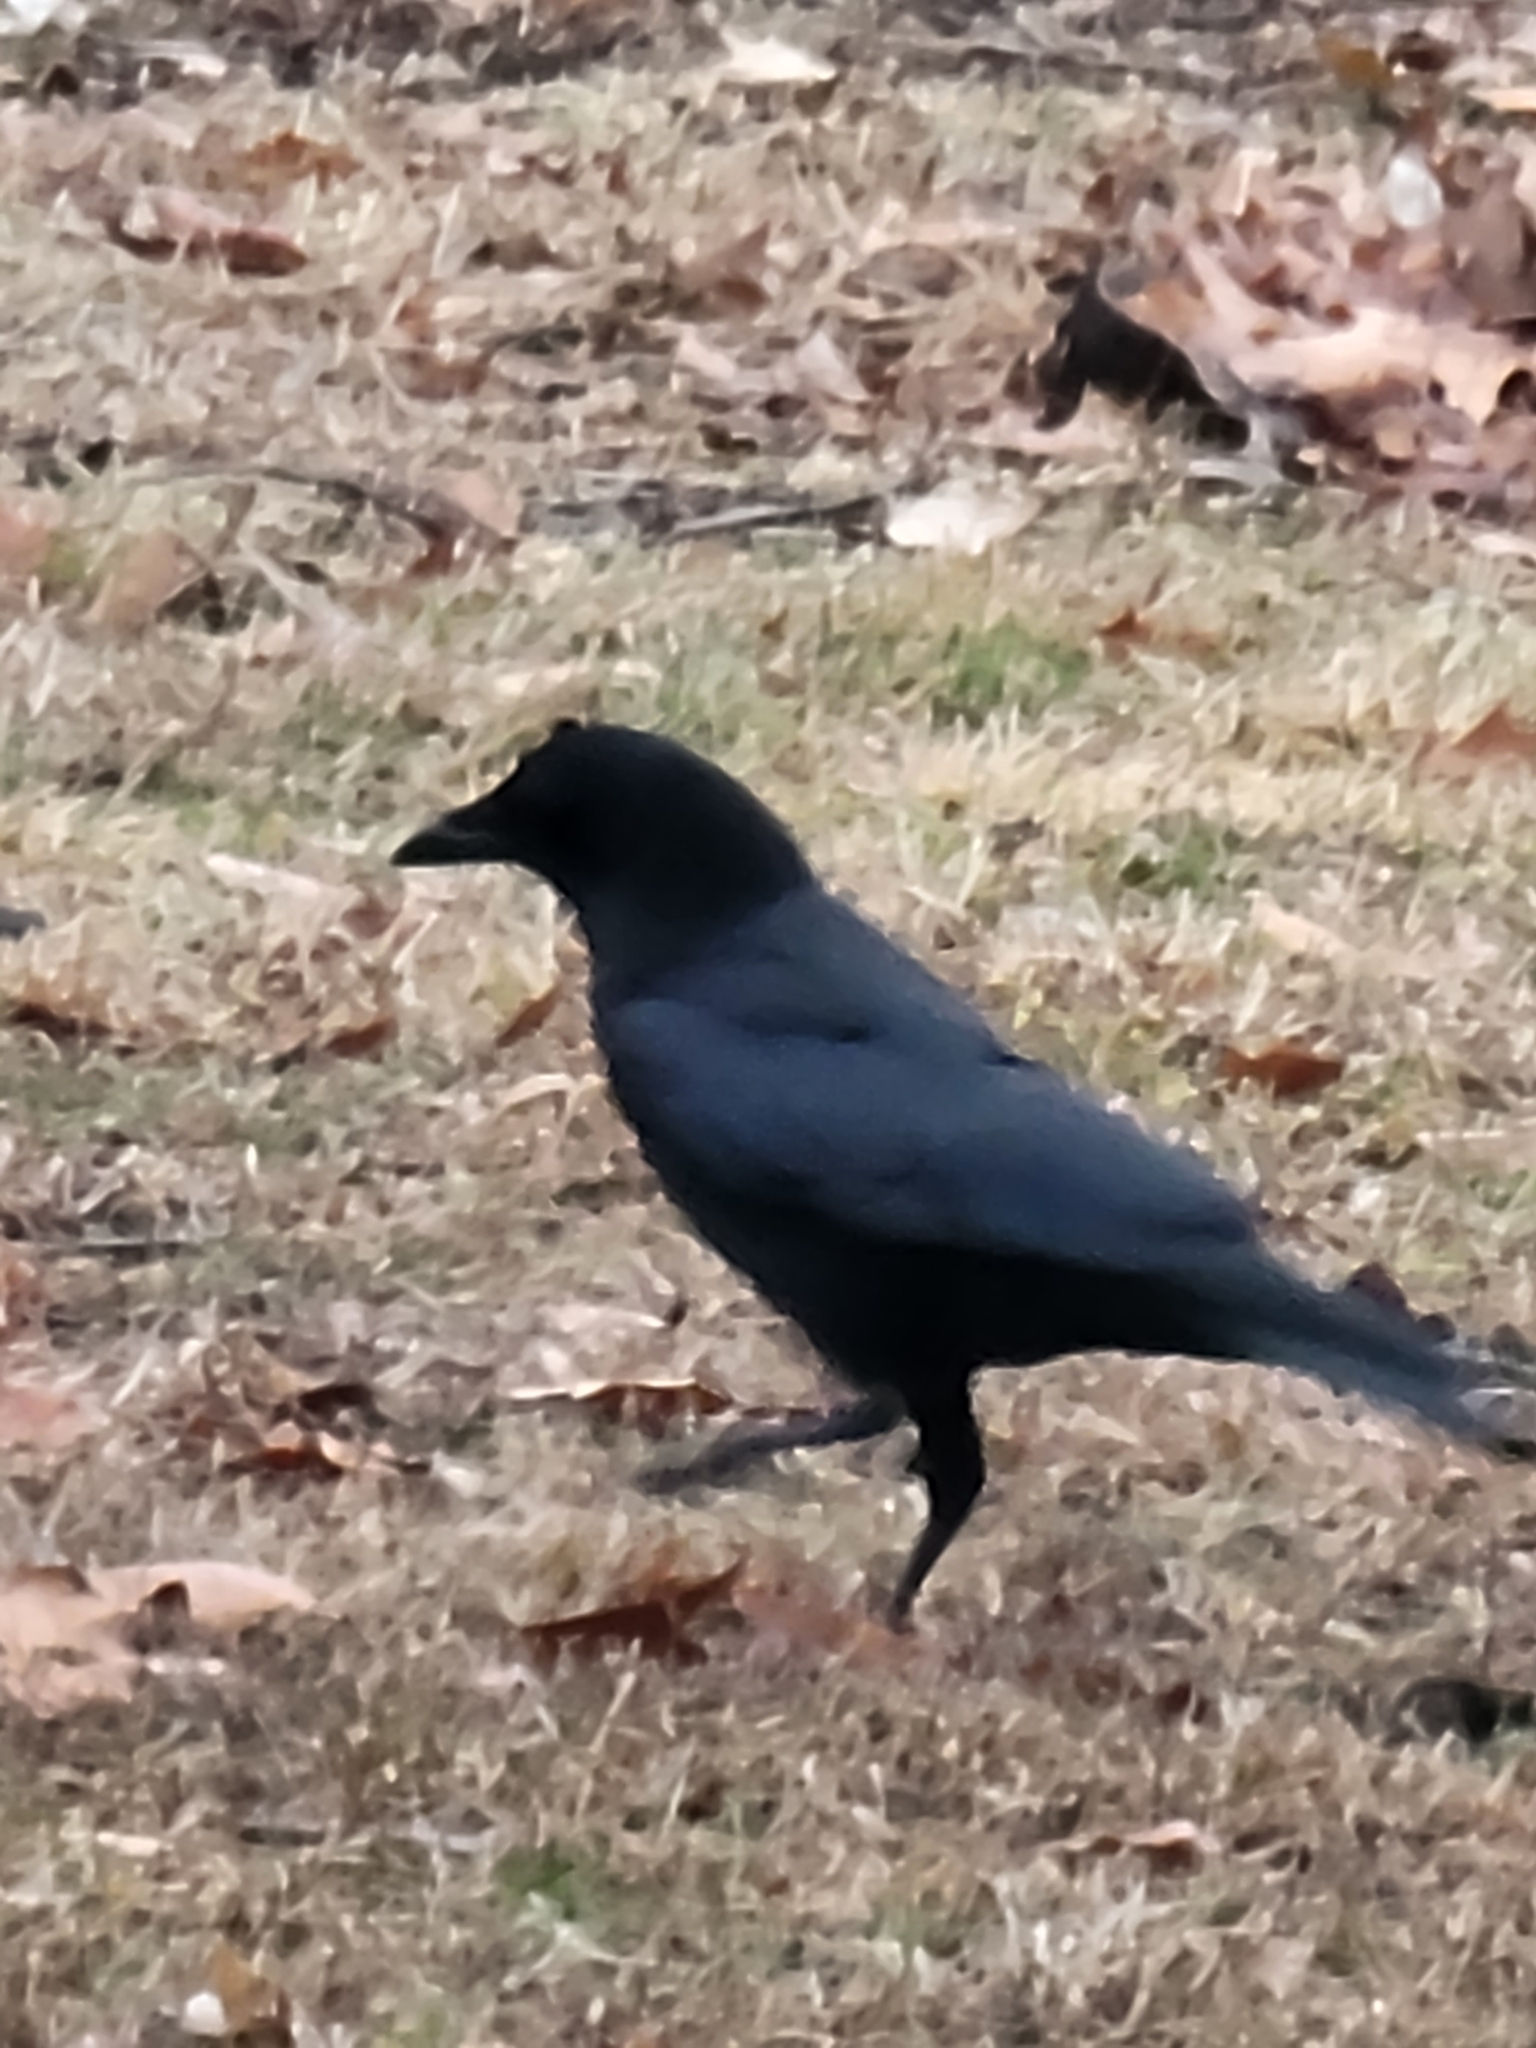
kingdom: Animalia
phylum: Chordata
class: Aves
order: Passeriformes
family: Corvidae
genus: Corvus
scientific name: Corvus brachyrhynchos
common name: American crow
